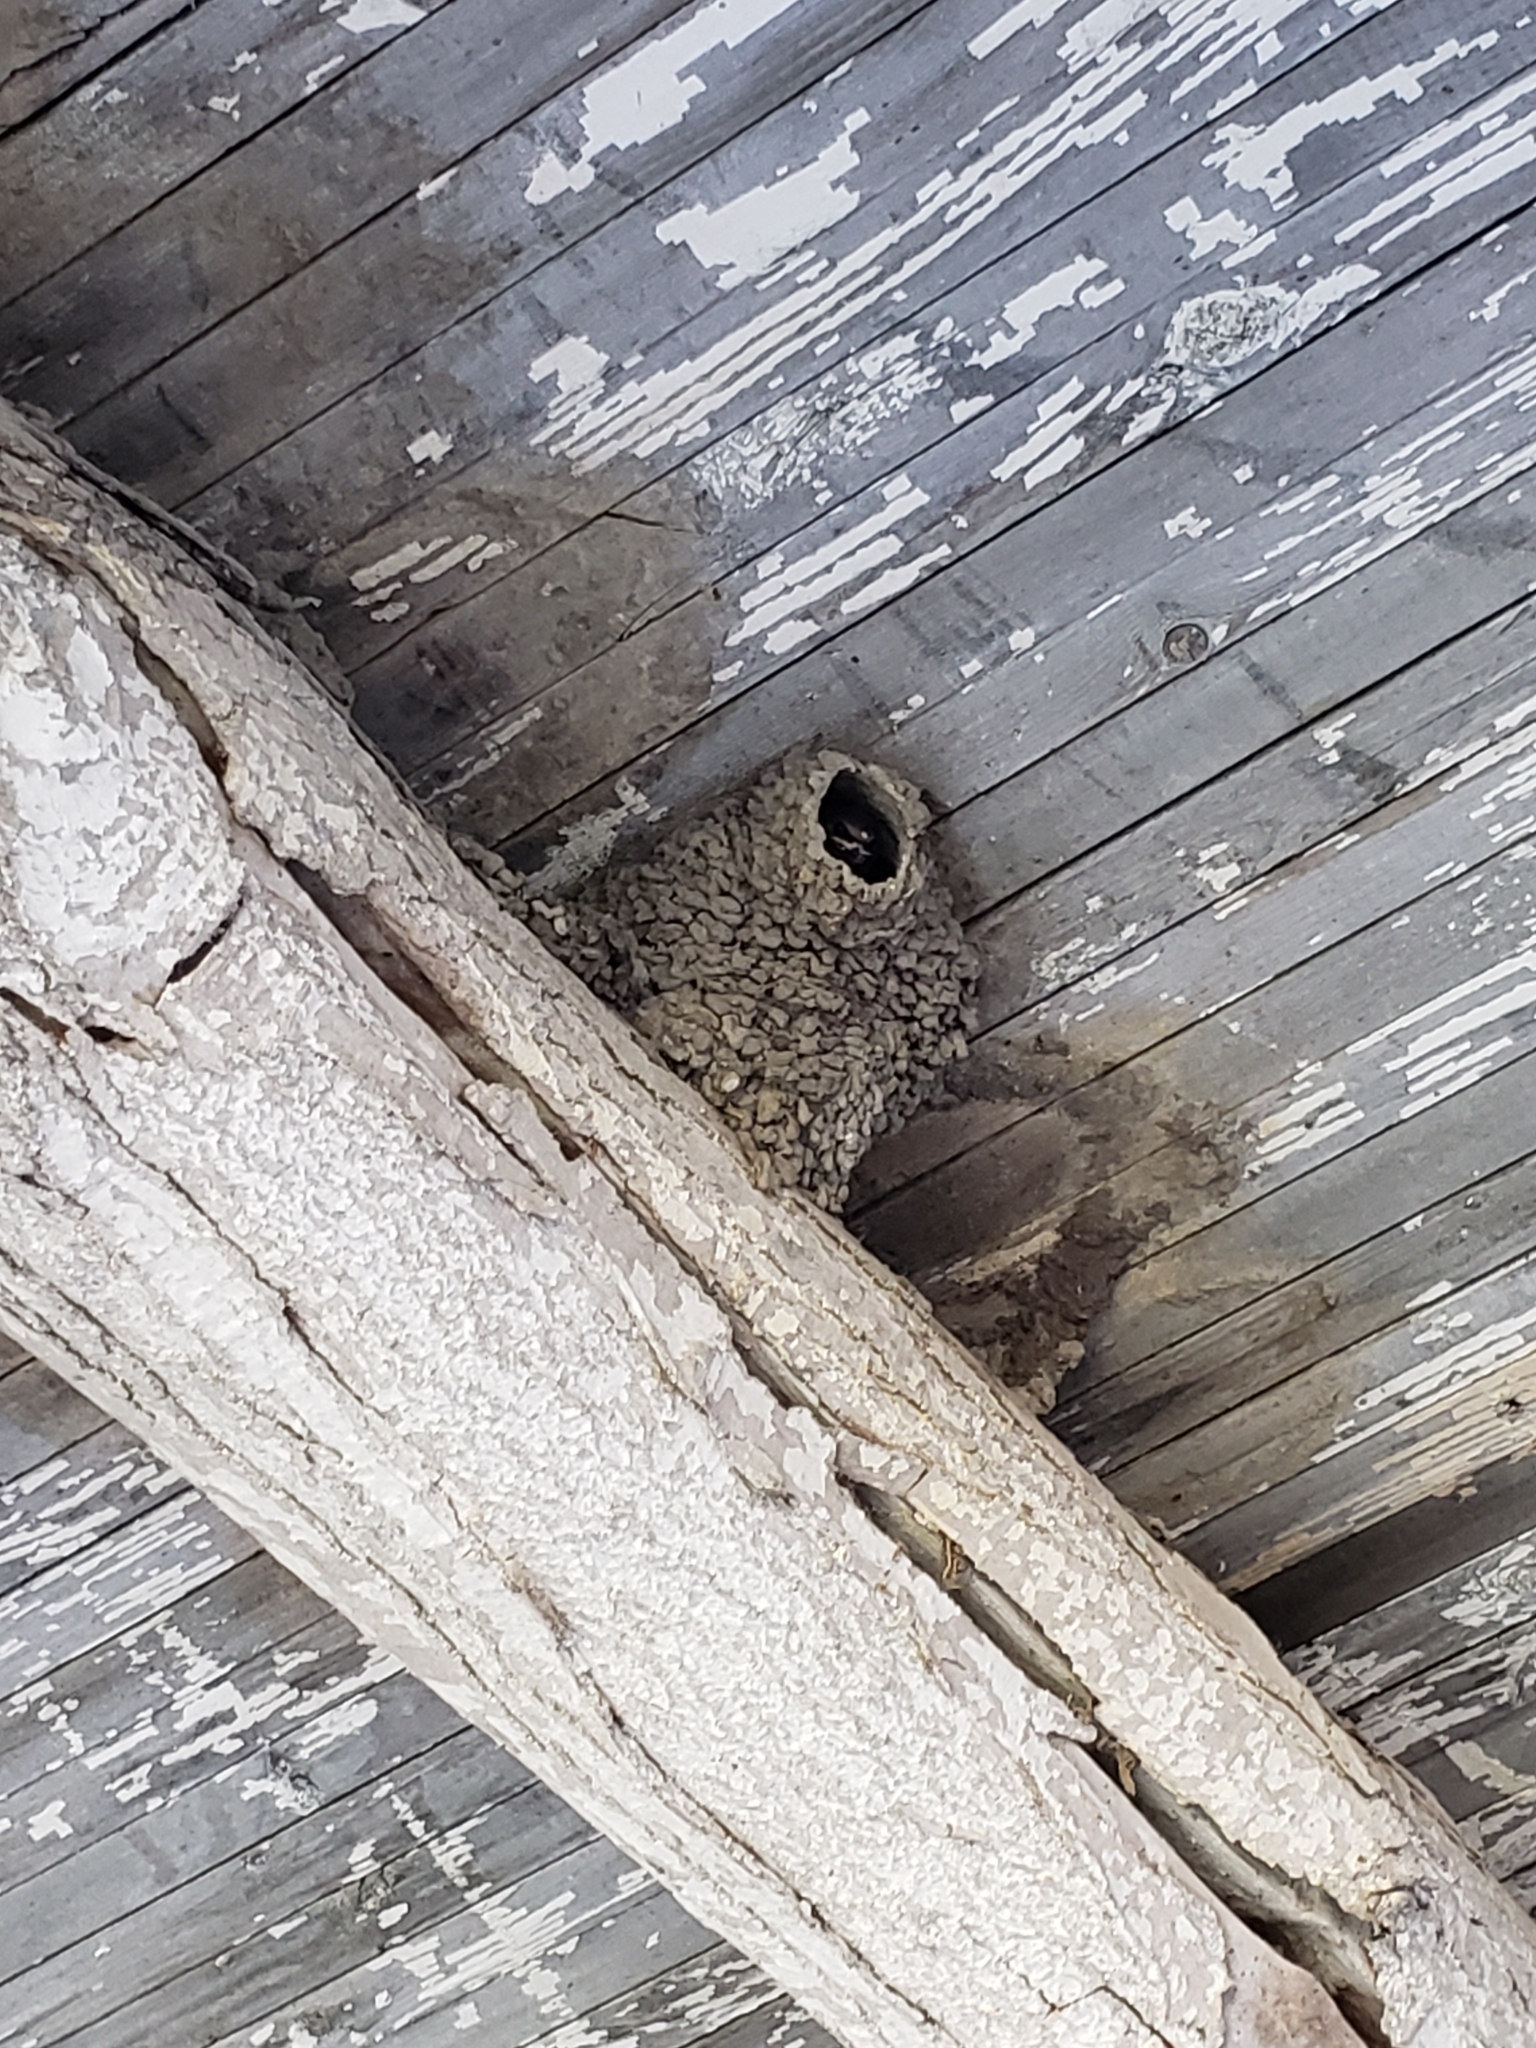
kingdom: Animalia
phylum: Chordata
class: Aves
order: Passeriformes
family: Hirundinidae
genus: Petrochelidon
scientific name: Petrochelidon pyrrhonota
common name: American cliff swallow
